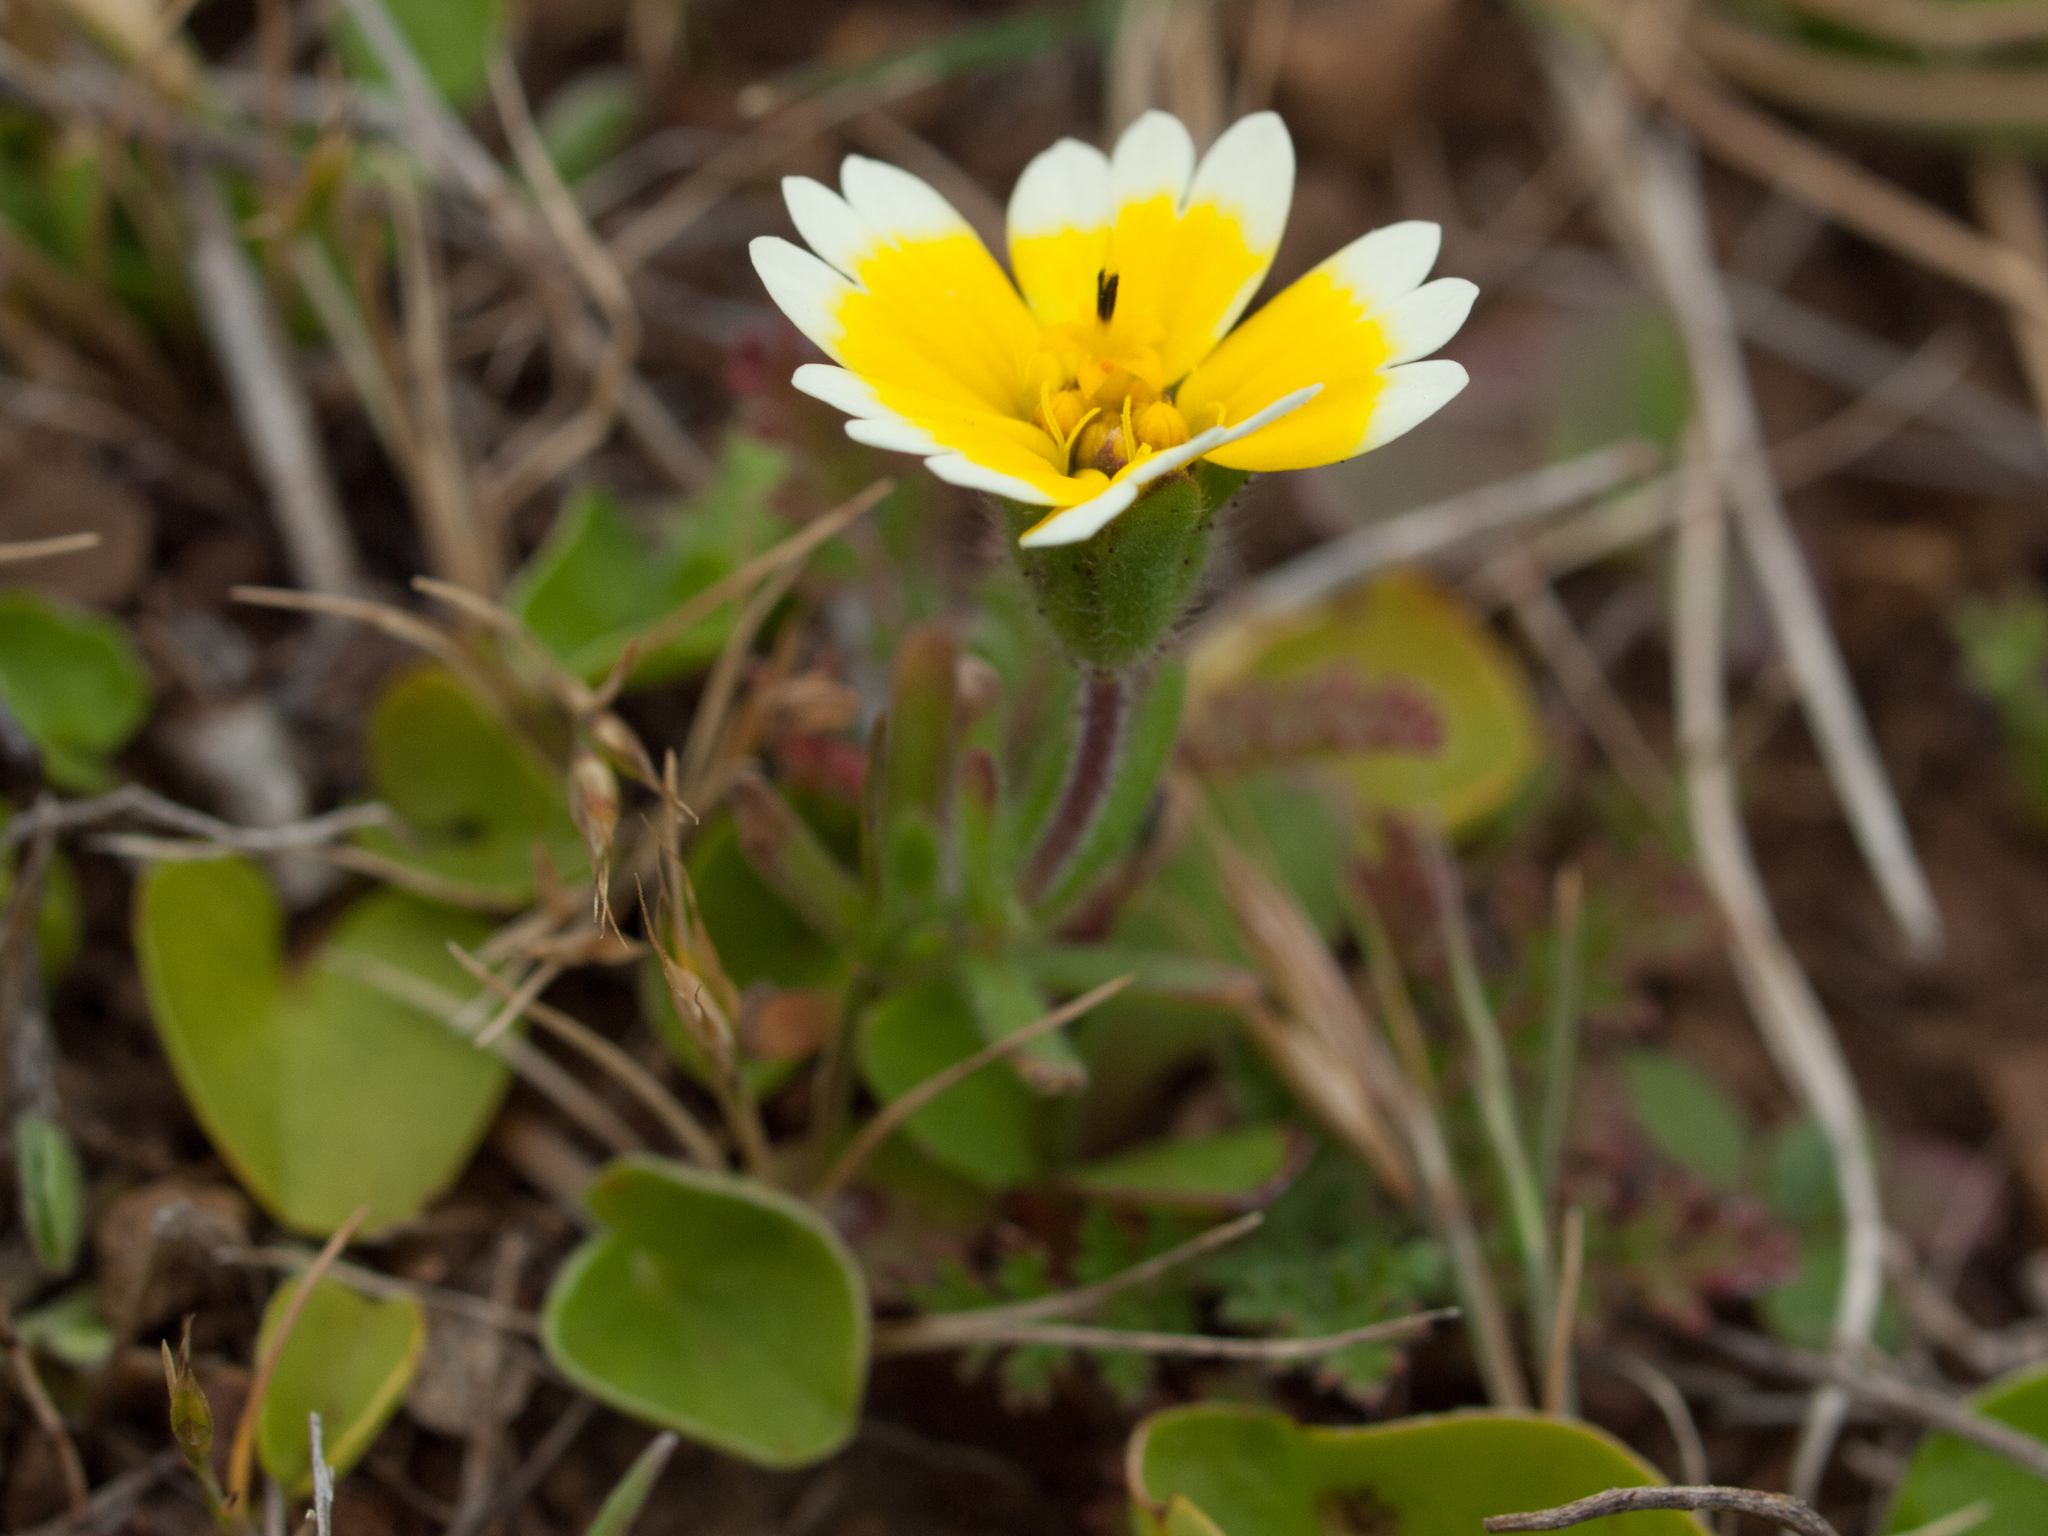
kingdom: Plantae
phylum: Tracheophyta
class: Magnoliopsida
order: Asterales
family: Asteraceae
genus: Layia
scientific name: Layia platyglossa
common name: Tidy-tips
